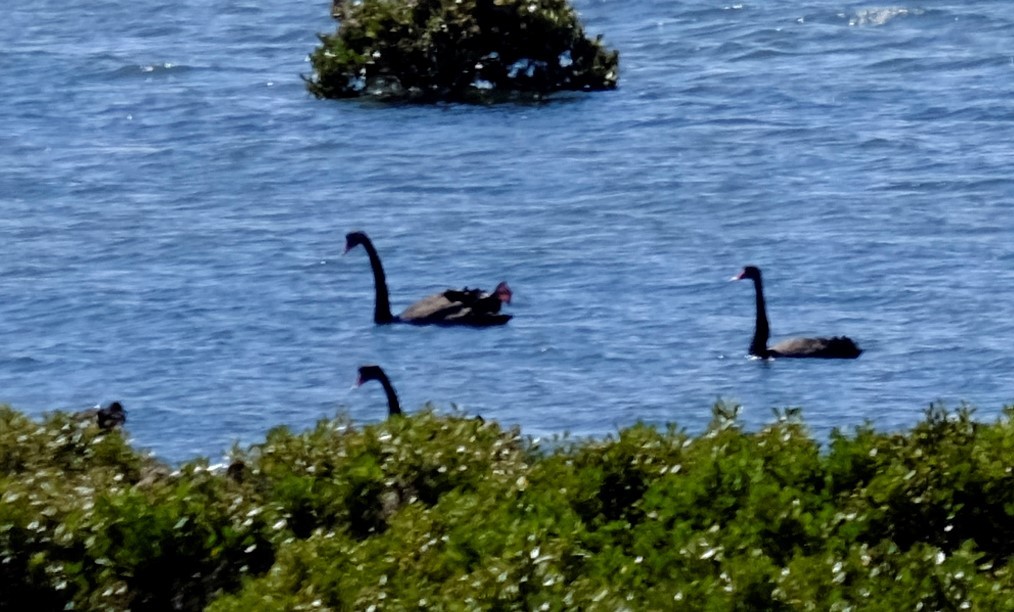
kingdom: Animalia
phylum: Chordata
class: Aves
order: Anseriformes
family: Anatidae
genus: Cygnus
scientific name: Cygnus atratus
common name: Black swan
